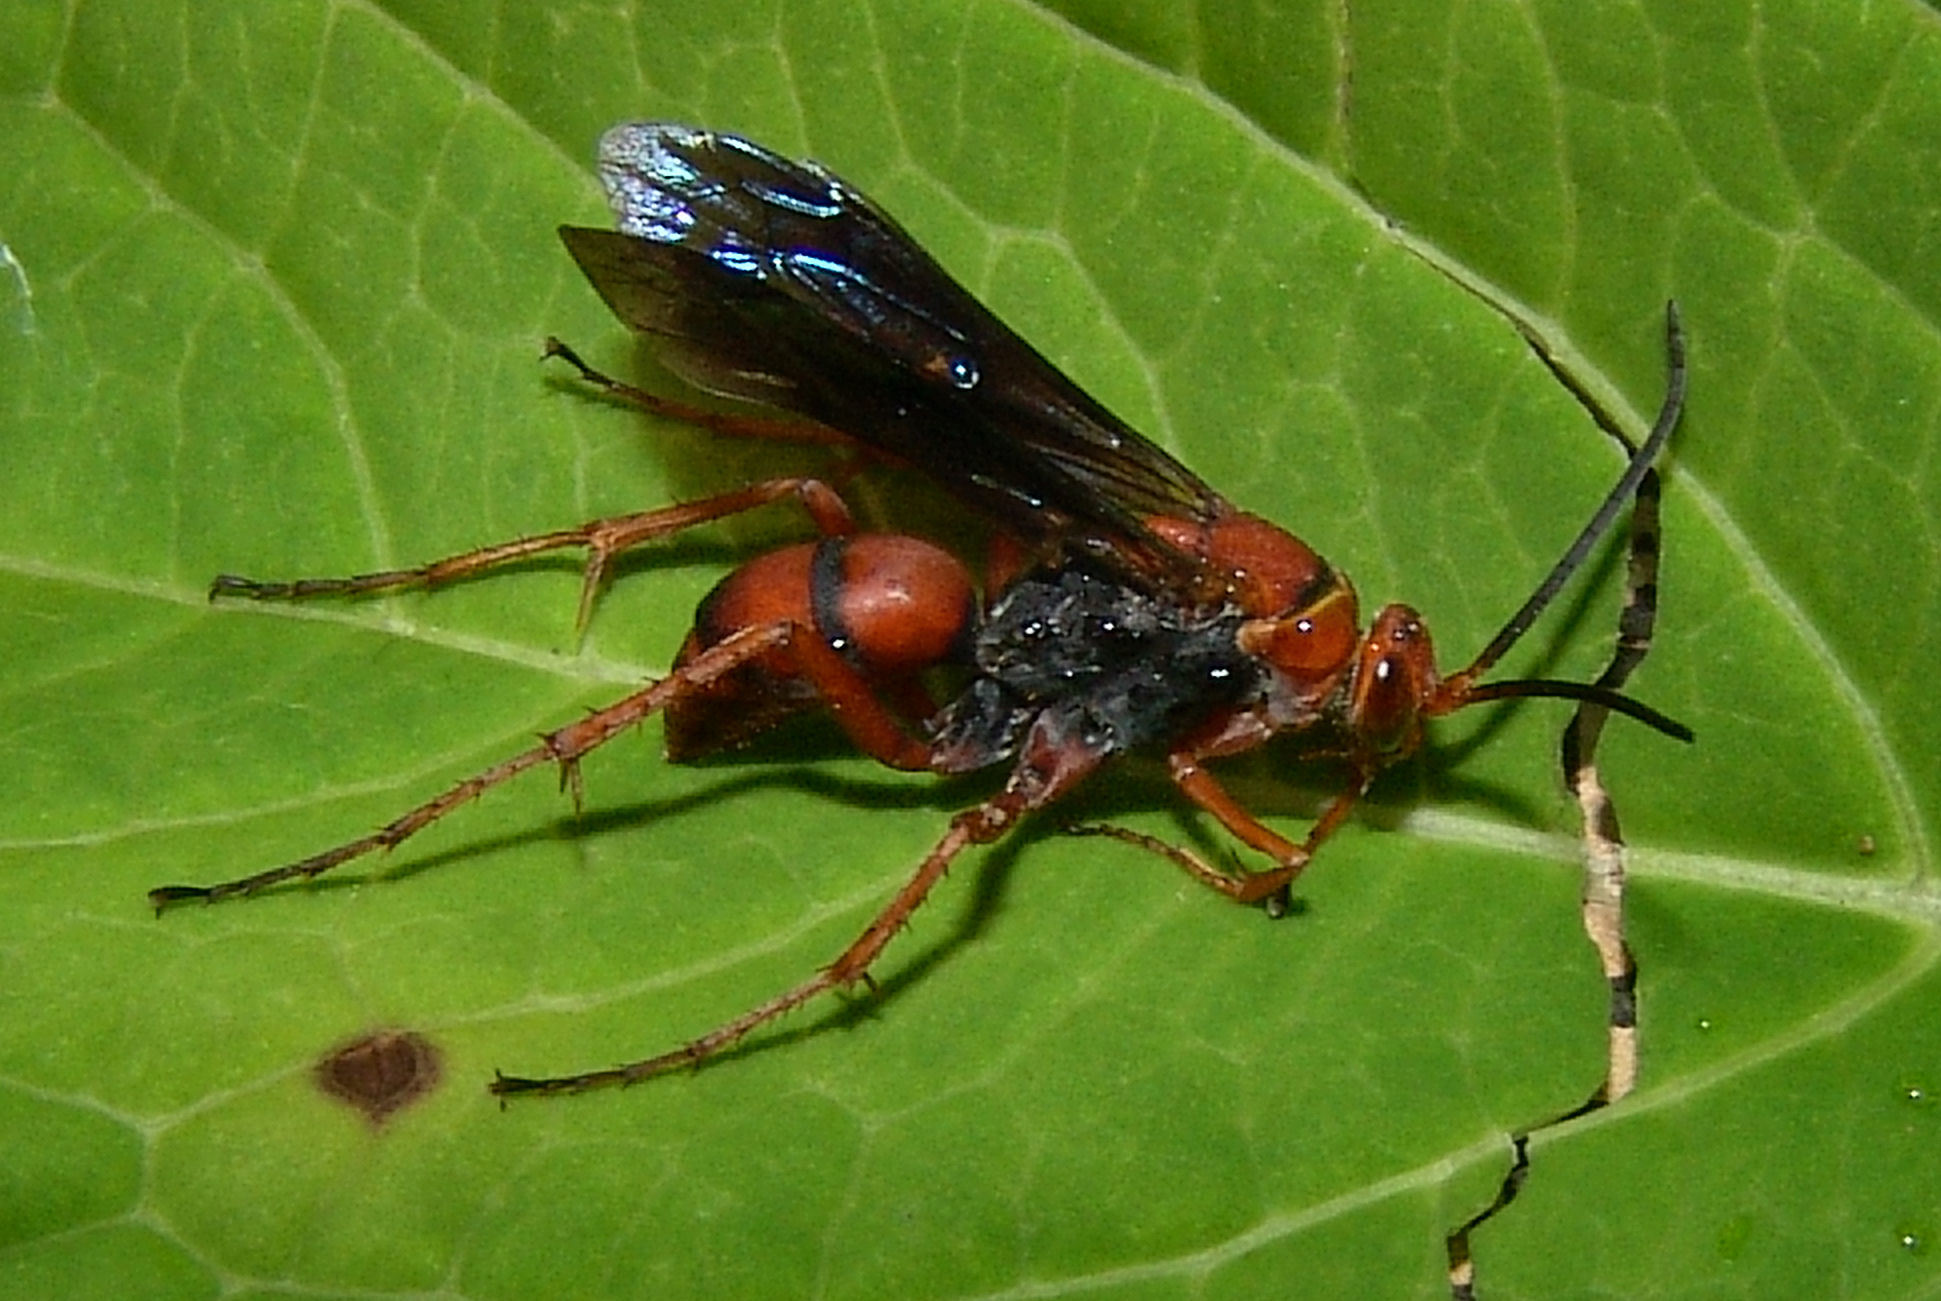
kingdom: Animalia
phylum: Arthropoda
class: Insecta
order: Hymenoptera
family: Pompilidae
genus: Tachypompilus
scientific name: Tachypompilus ferrugineus
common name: Rusty spider wasp
